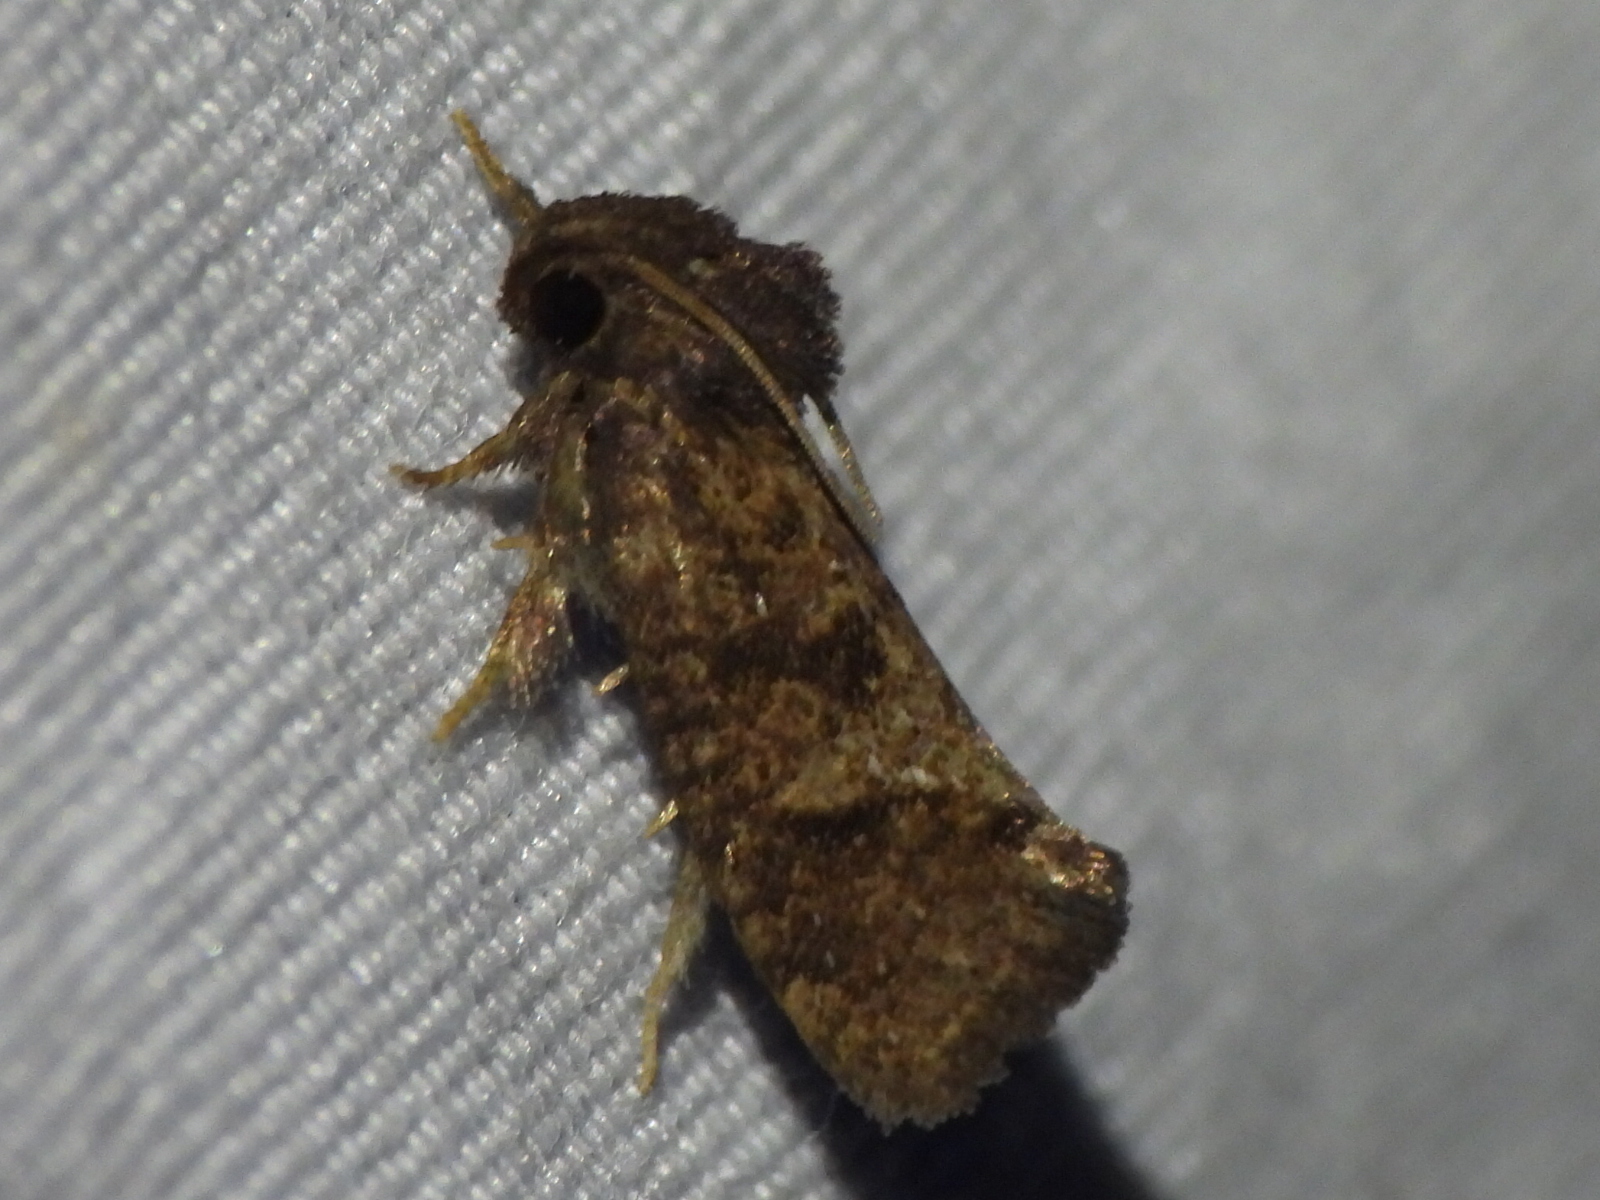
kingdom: Animalia
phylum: Arthropoda
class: Insecta
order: Lepidoptera
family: Tineidae
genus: Acrolophus
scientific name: Acrolophus texanella
